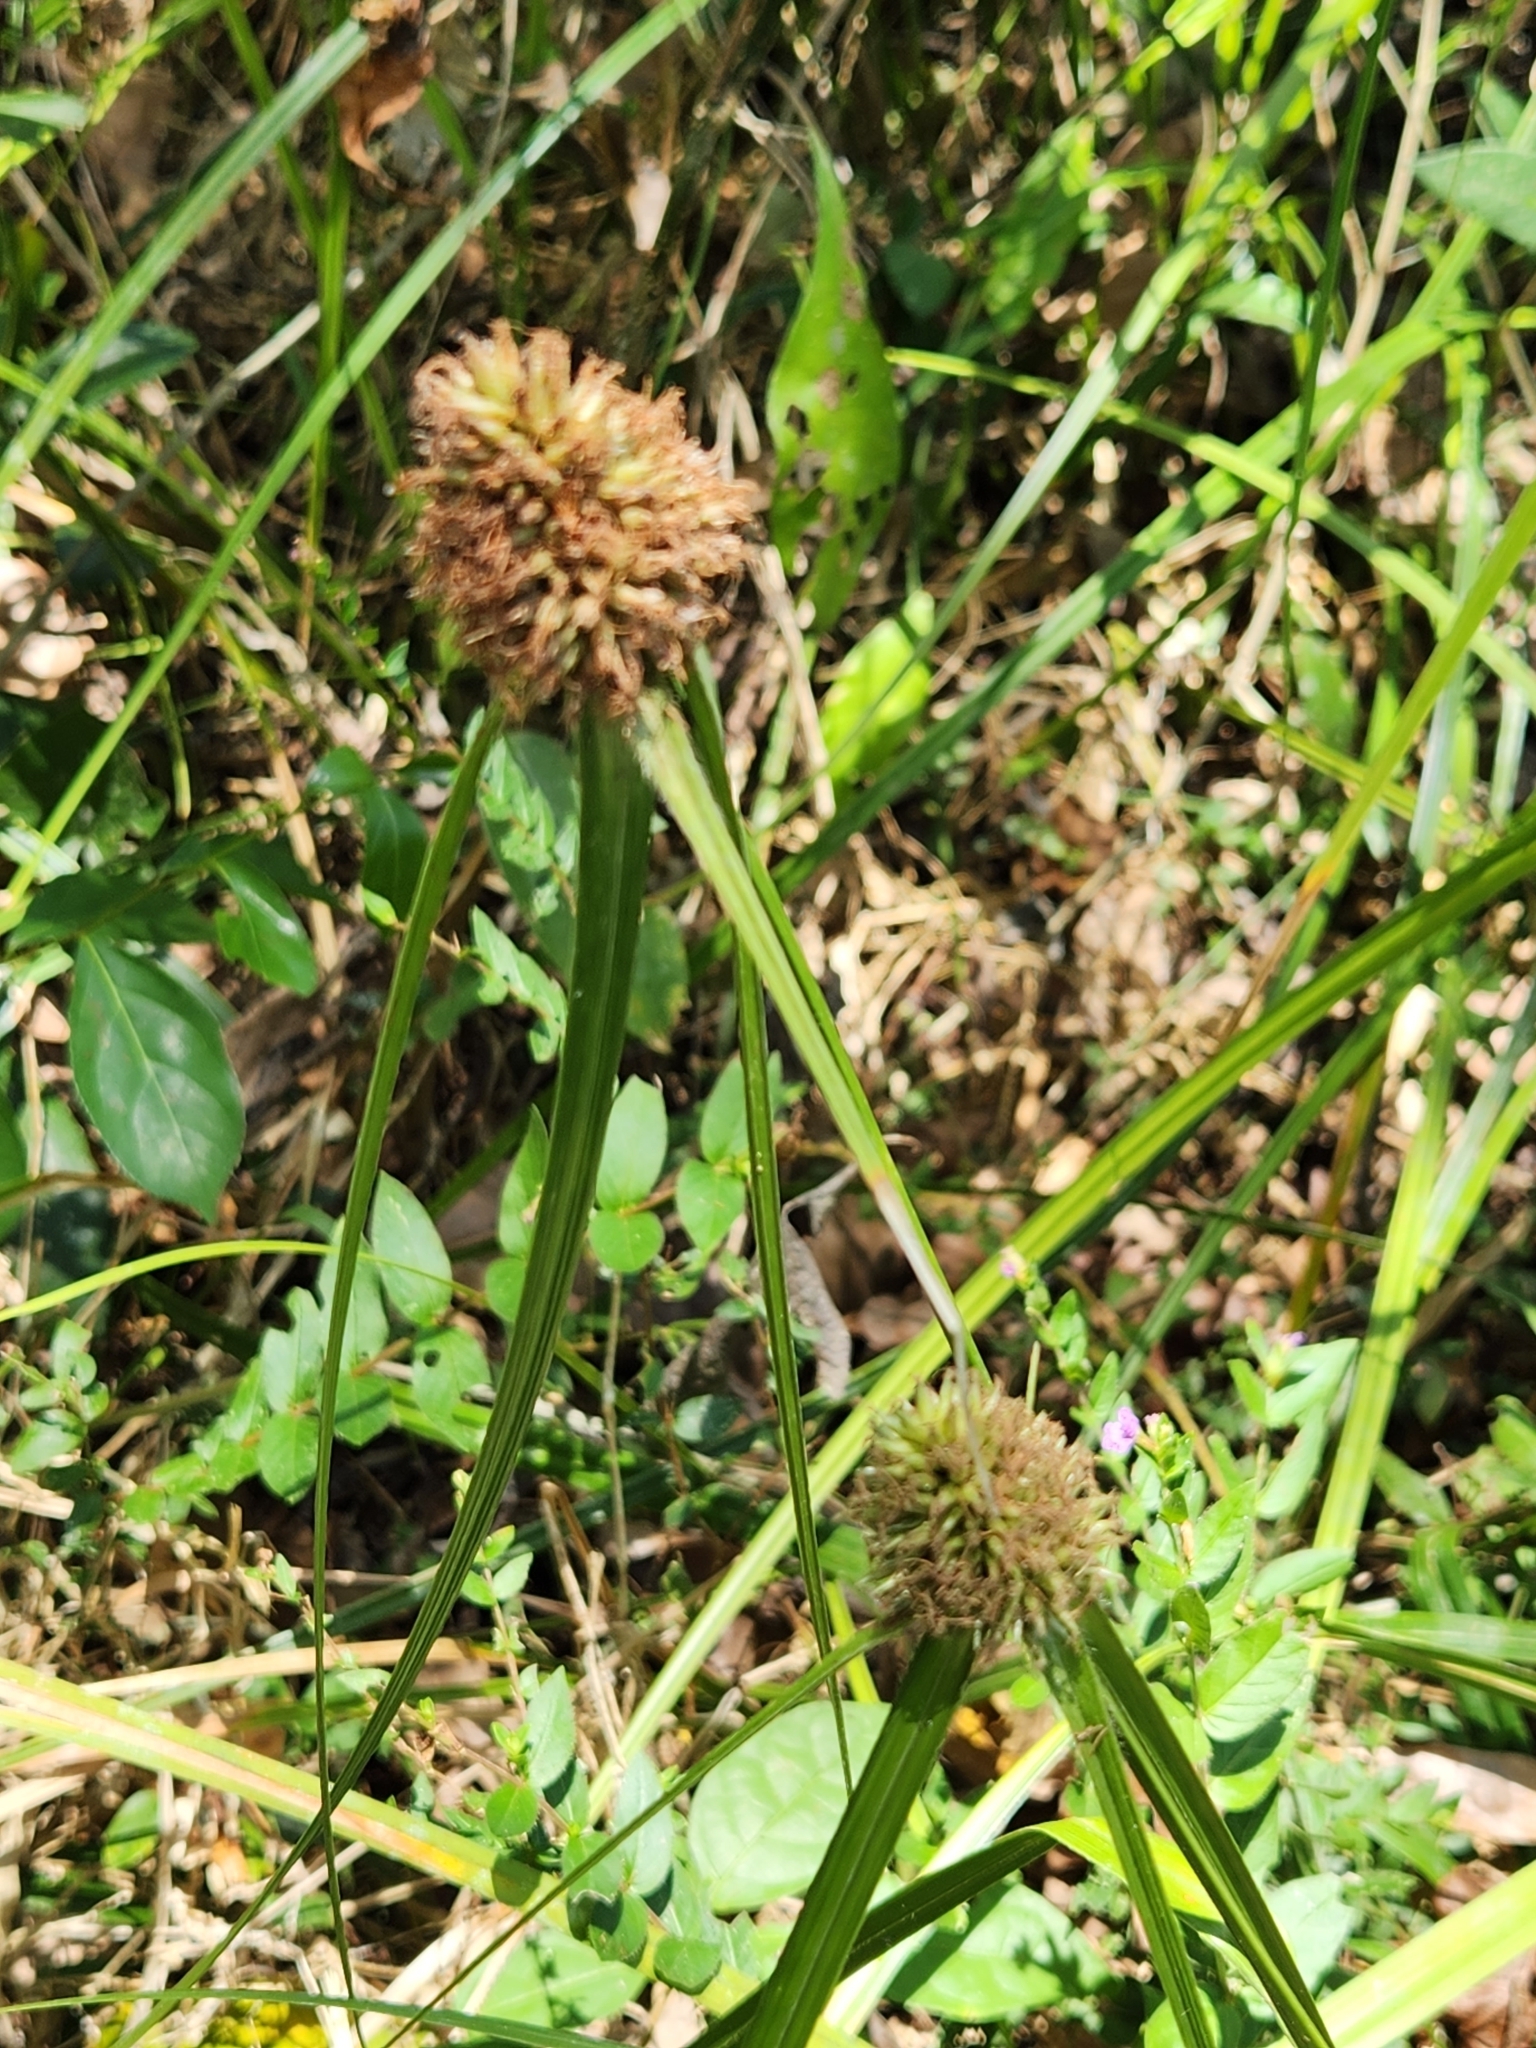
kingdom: Plantae
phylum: Tracheophyta
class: Liliopsida
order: Poales
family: Cyperaceae
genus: Rhynchospora
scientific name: Rhynchospora cephalotes
